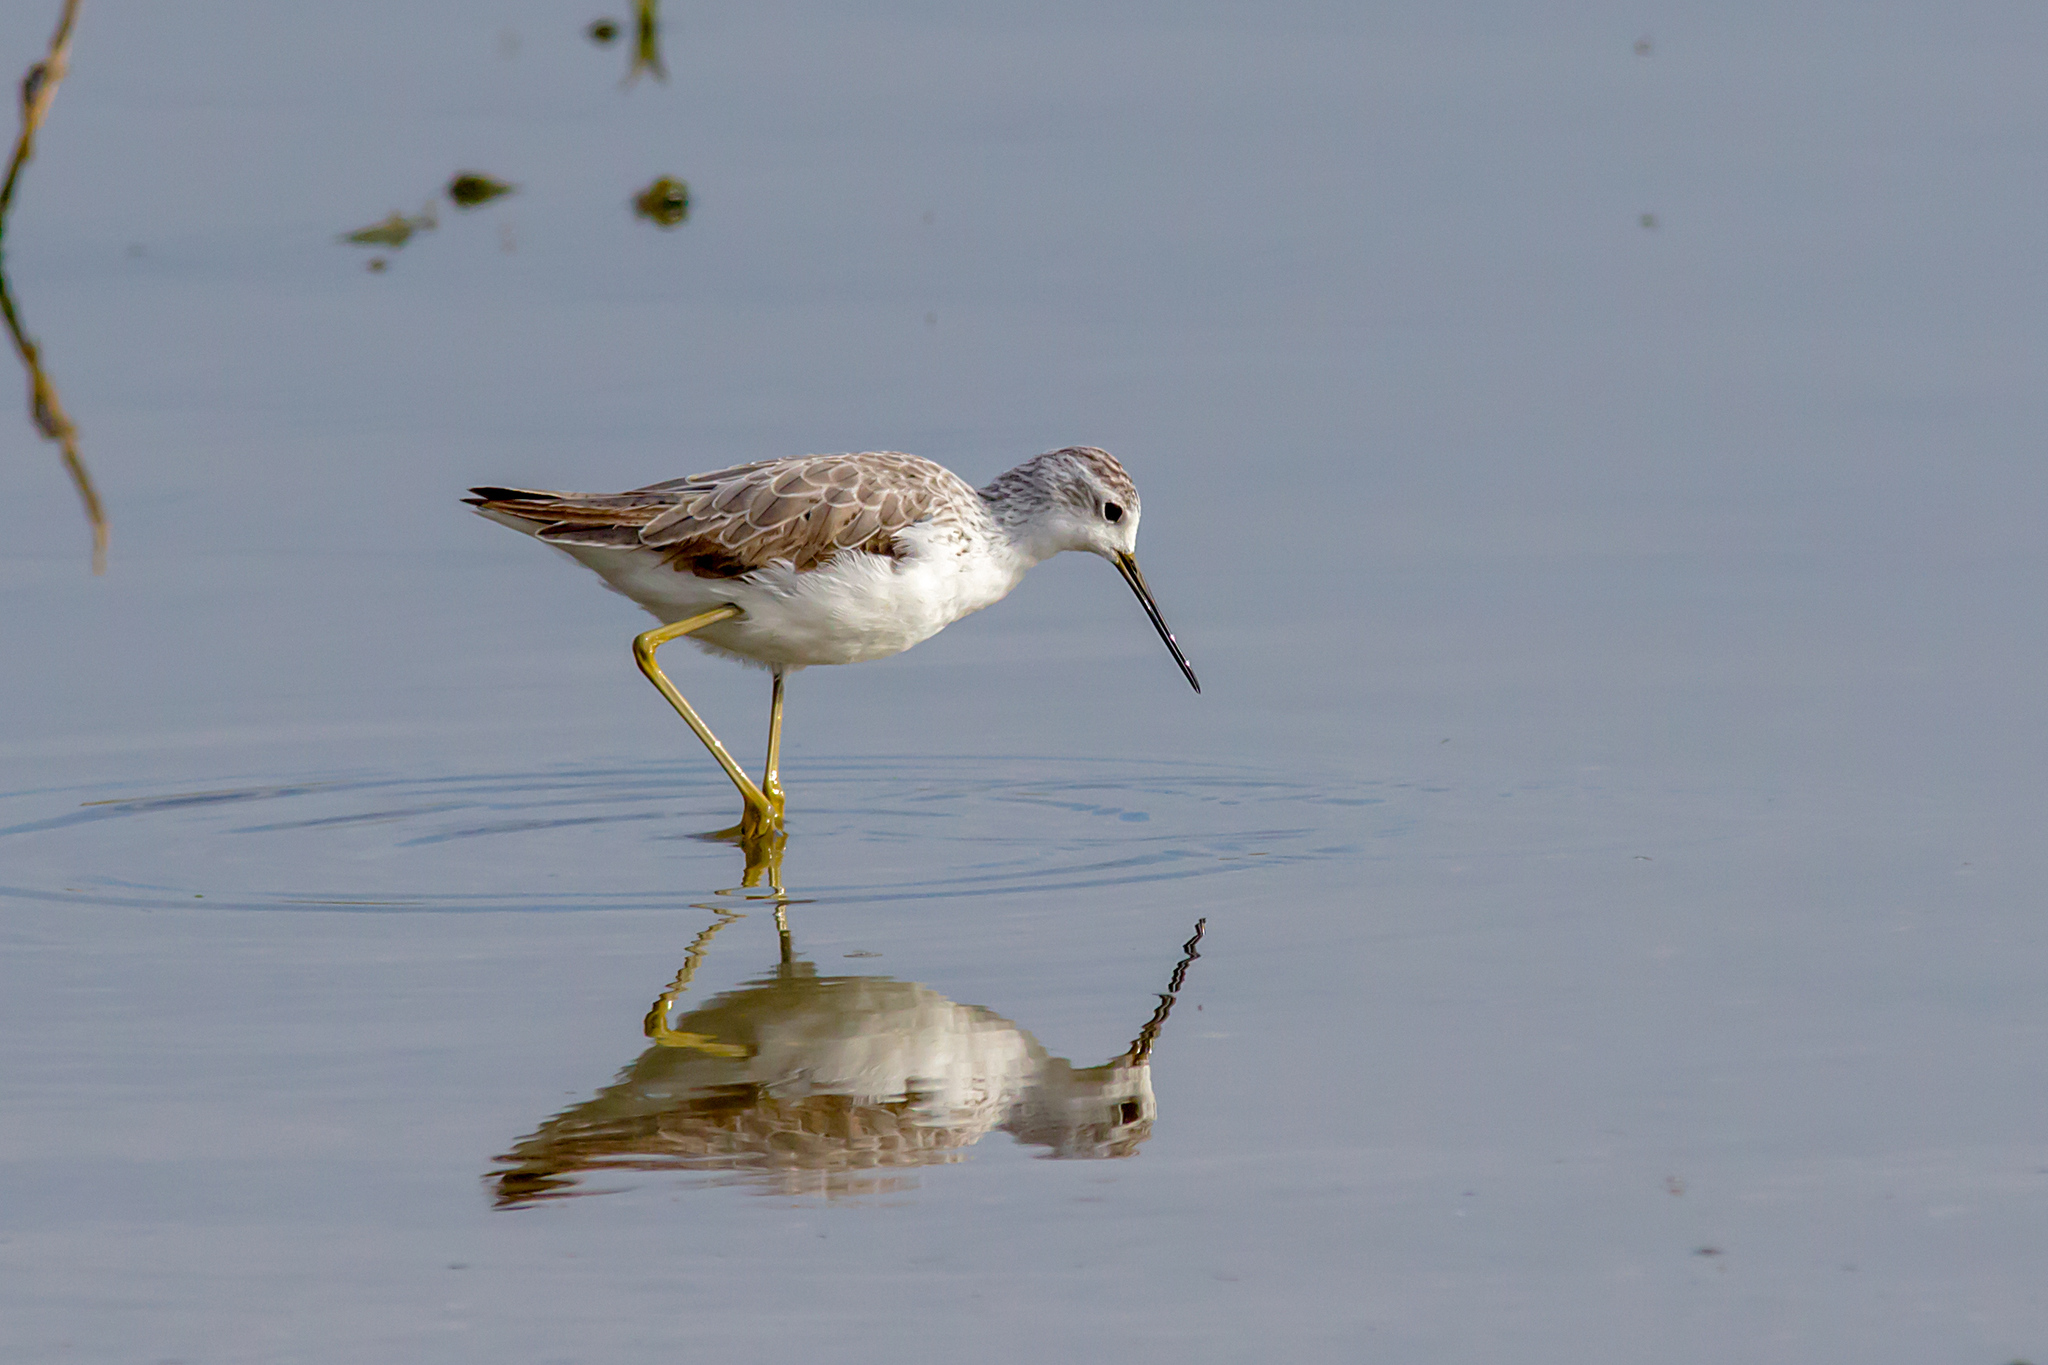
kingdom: Animalia
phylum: Chordata
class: Aves
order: Charadriiformes
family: Scolopacidae
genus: Tringa
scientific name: Tringa stagnatilis
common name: Marsh sandpiper
